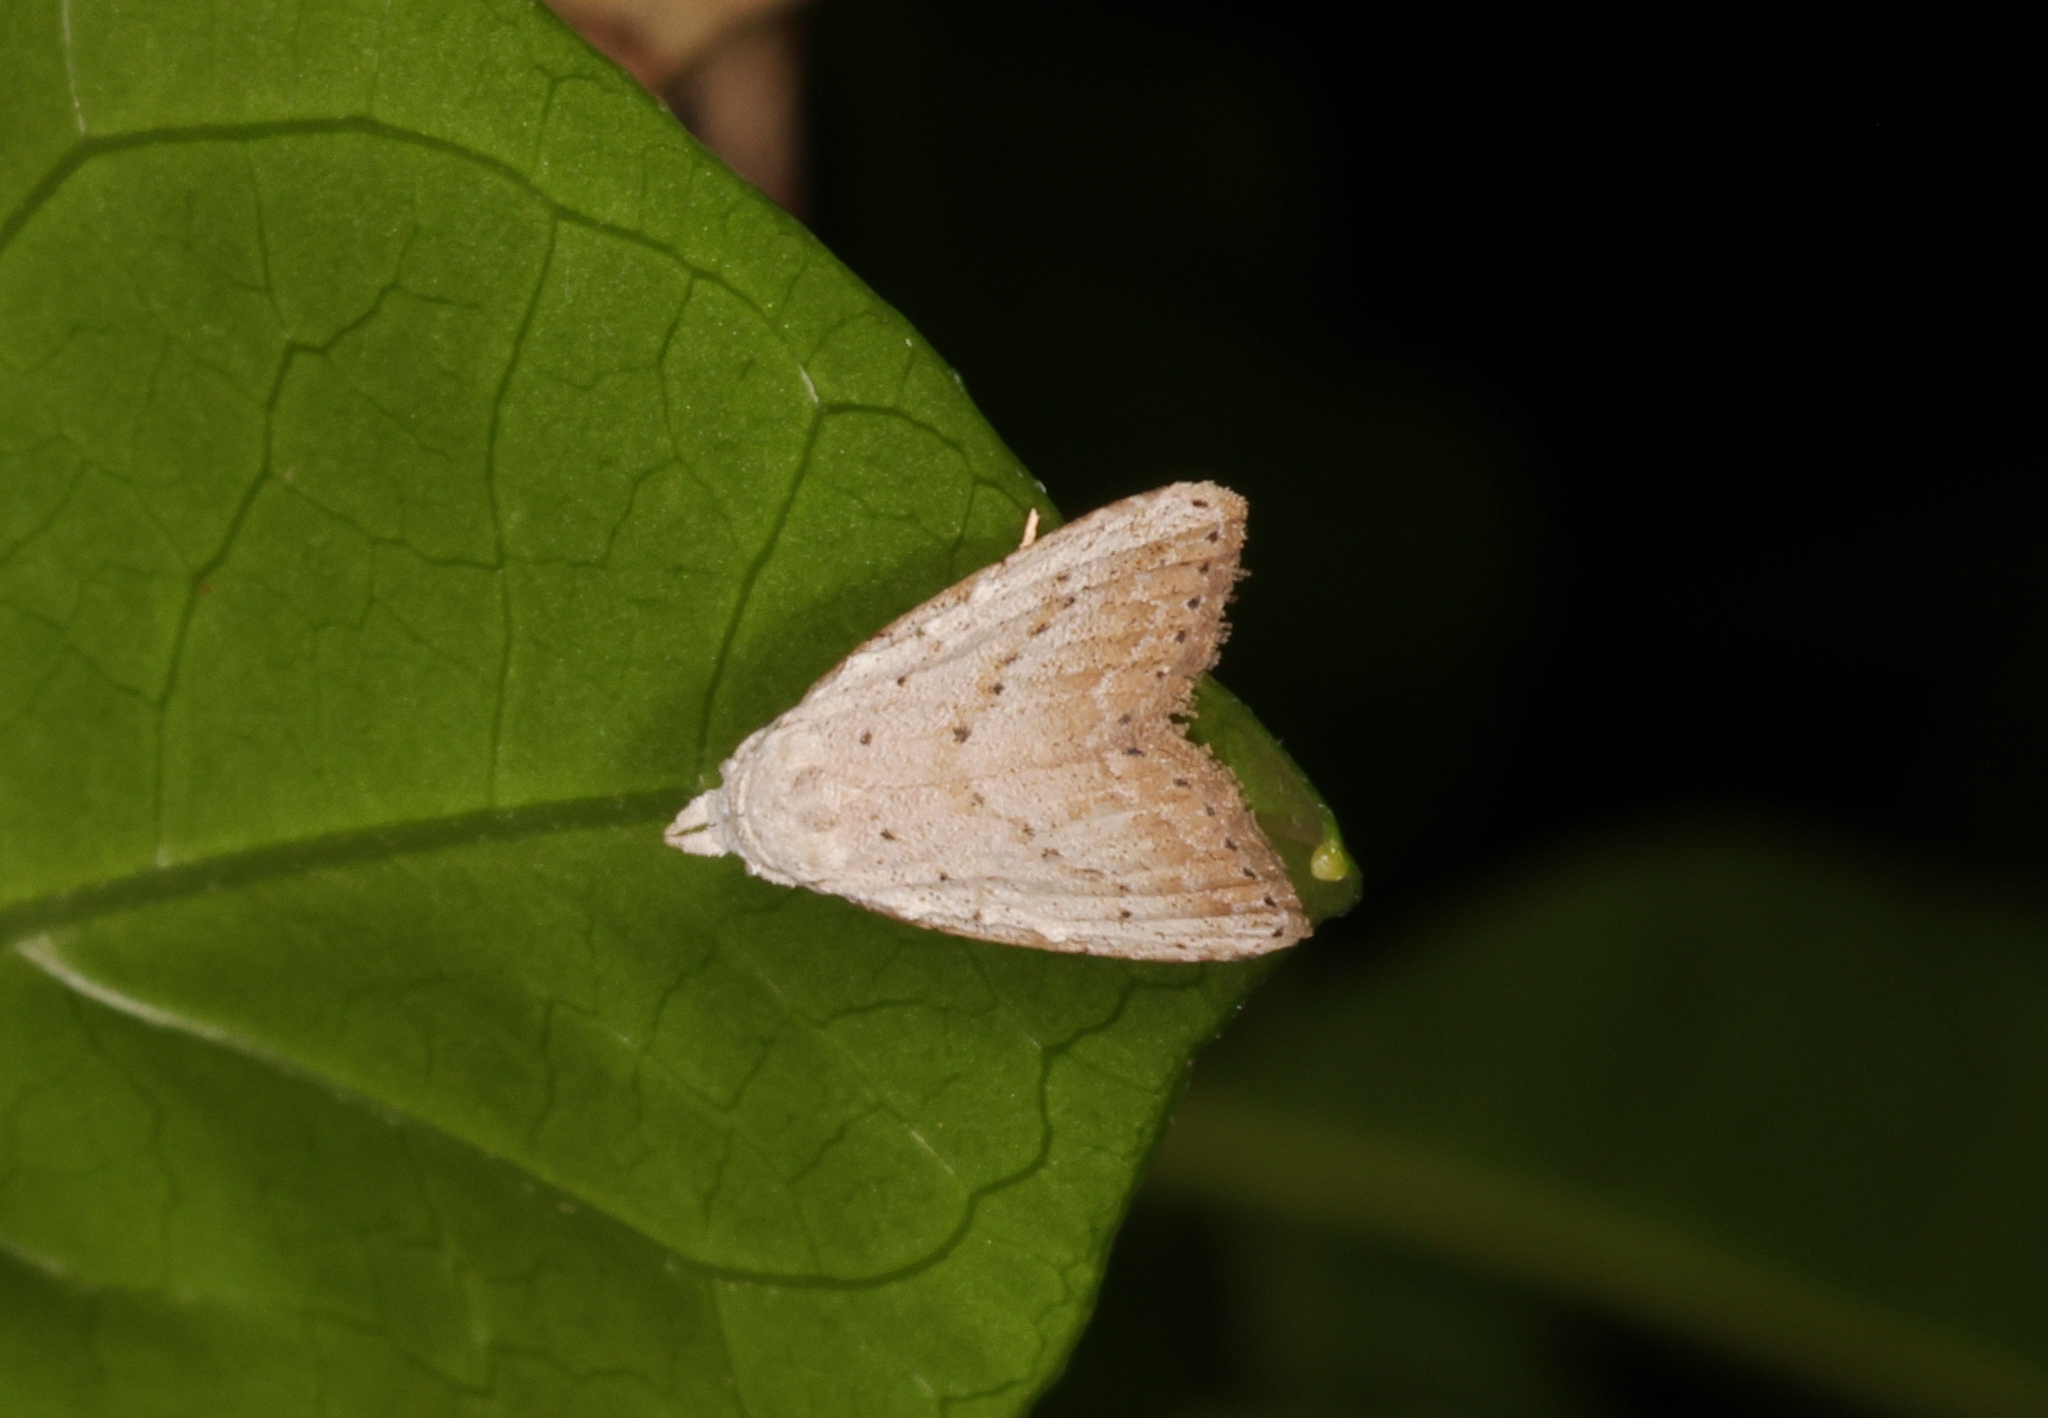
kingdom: Animalia
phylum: Arthropoda
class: Insecta
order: Lepidoptera
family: Nolidae
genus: Meganola
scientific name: Meganola brunellus
